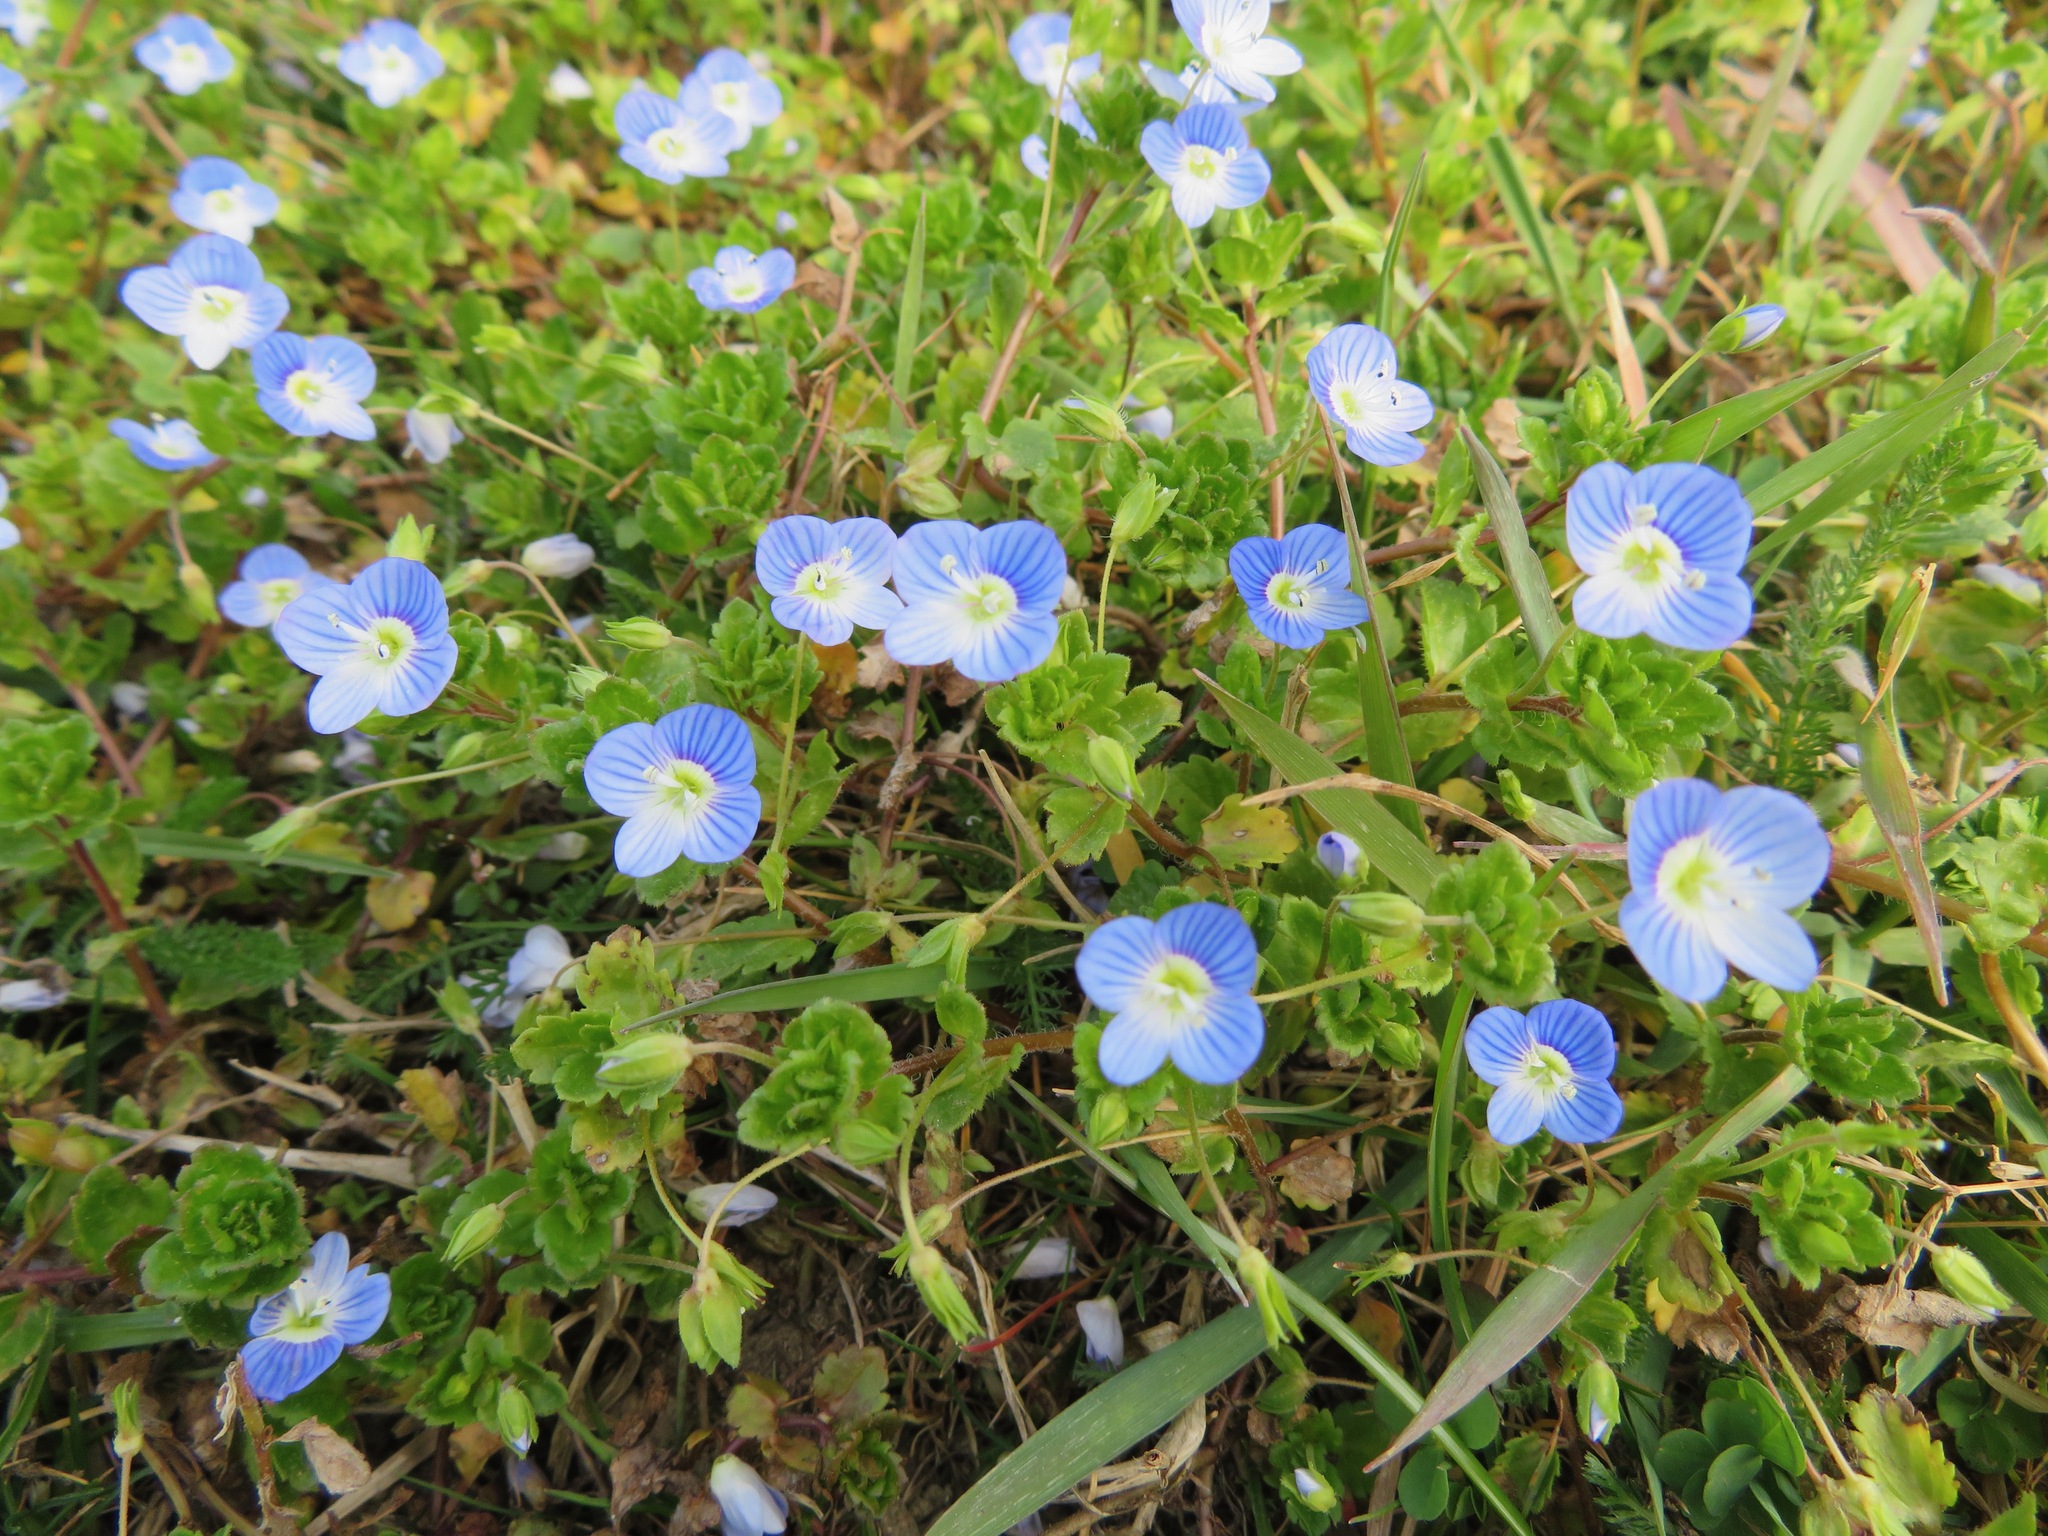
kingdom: Plantae
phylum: Tracheophyta
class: Magnoliopsida
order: Lamiales
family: Plantaginaceae
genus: Veronica
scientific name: Veronica persica
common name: Common field-speedwell
